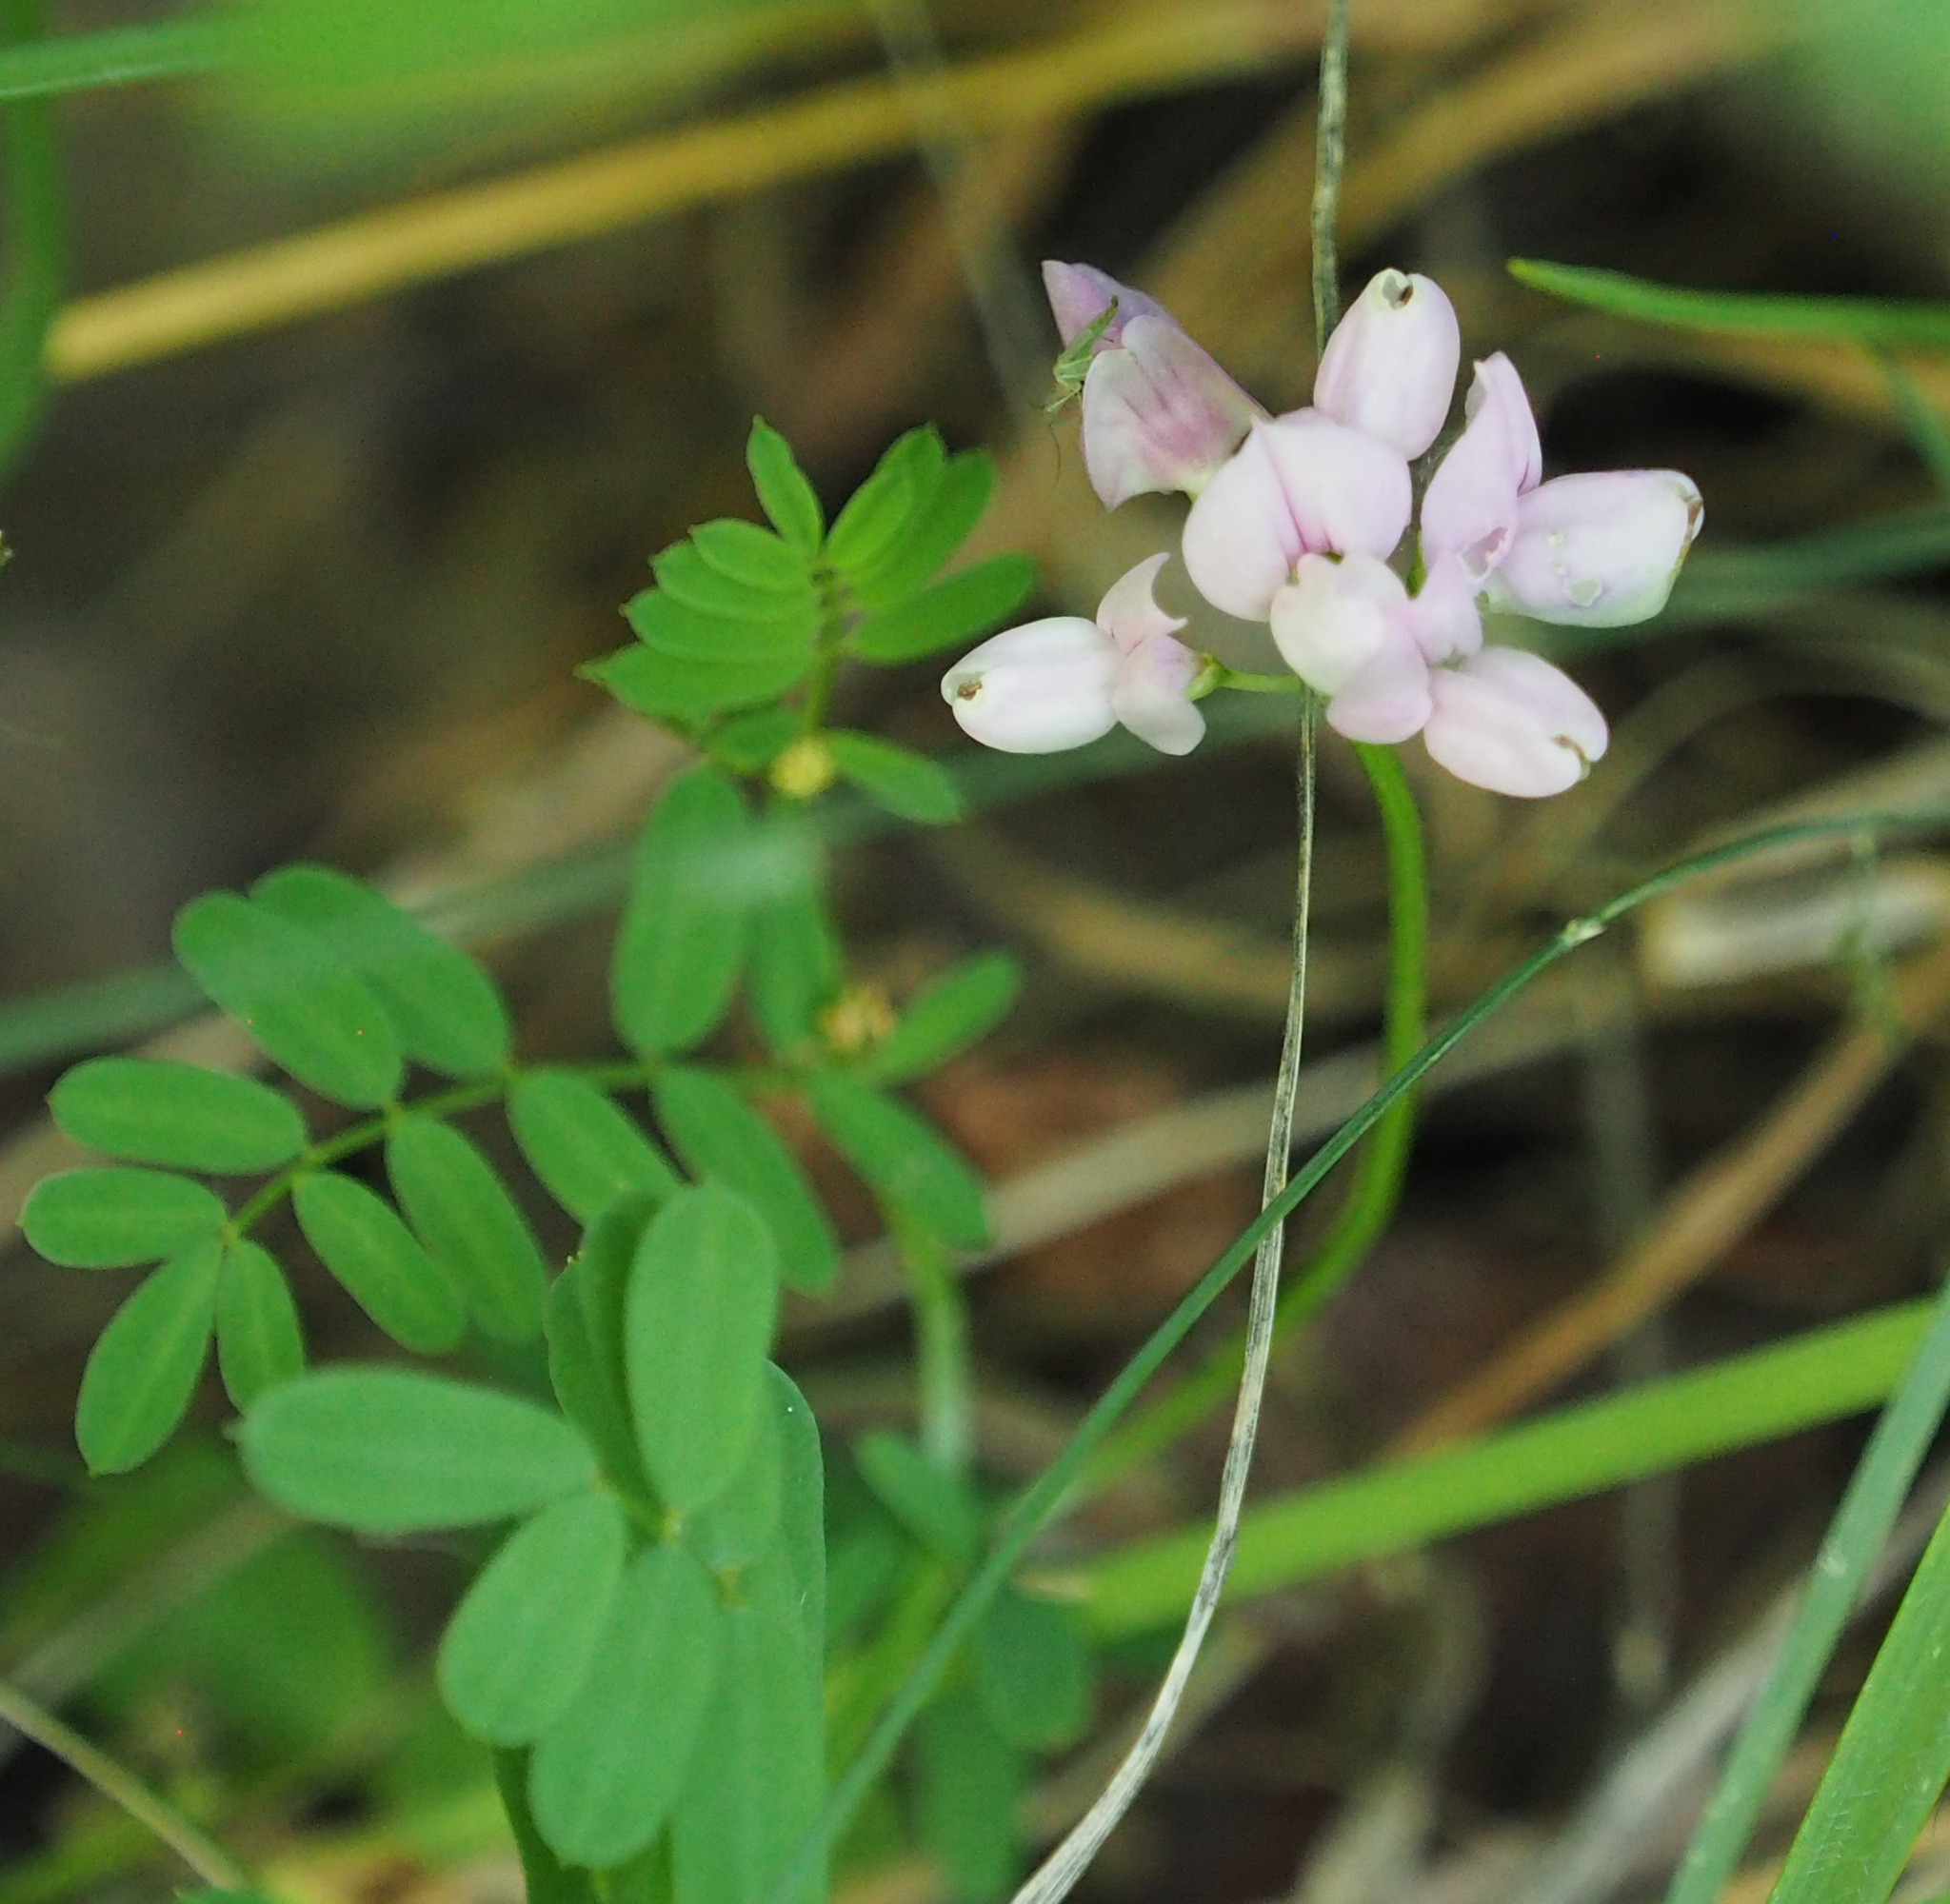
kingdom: Plantae
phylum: Tracheophyta
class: Magnoliopsida
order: Fabales
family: Fabaceae
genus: Coronilla
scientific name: Coronilla varia
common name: Crownvetch
